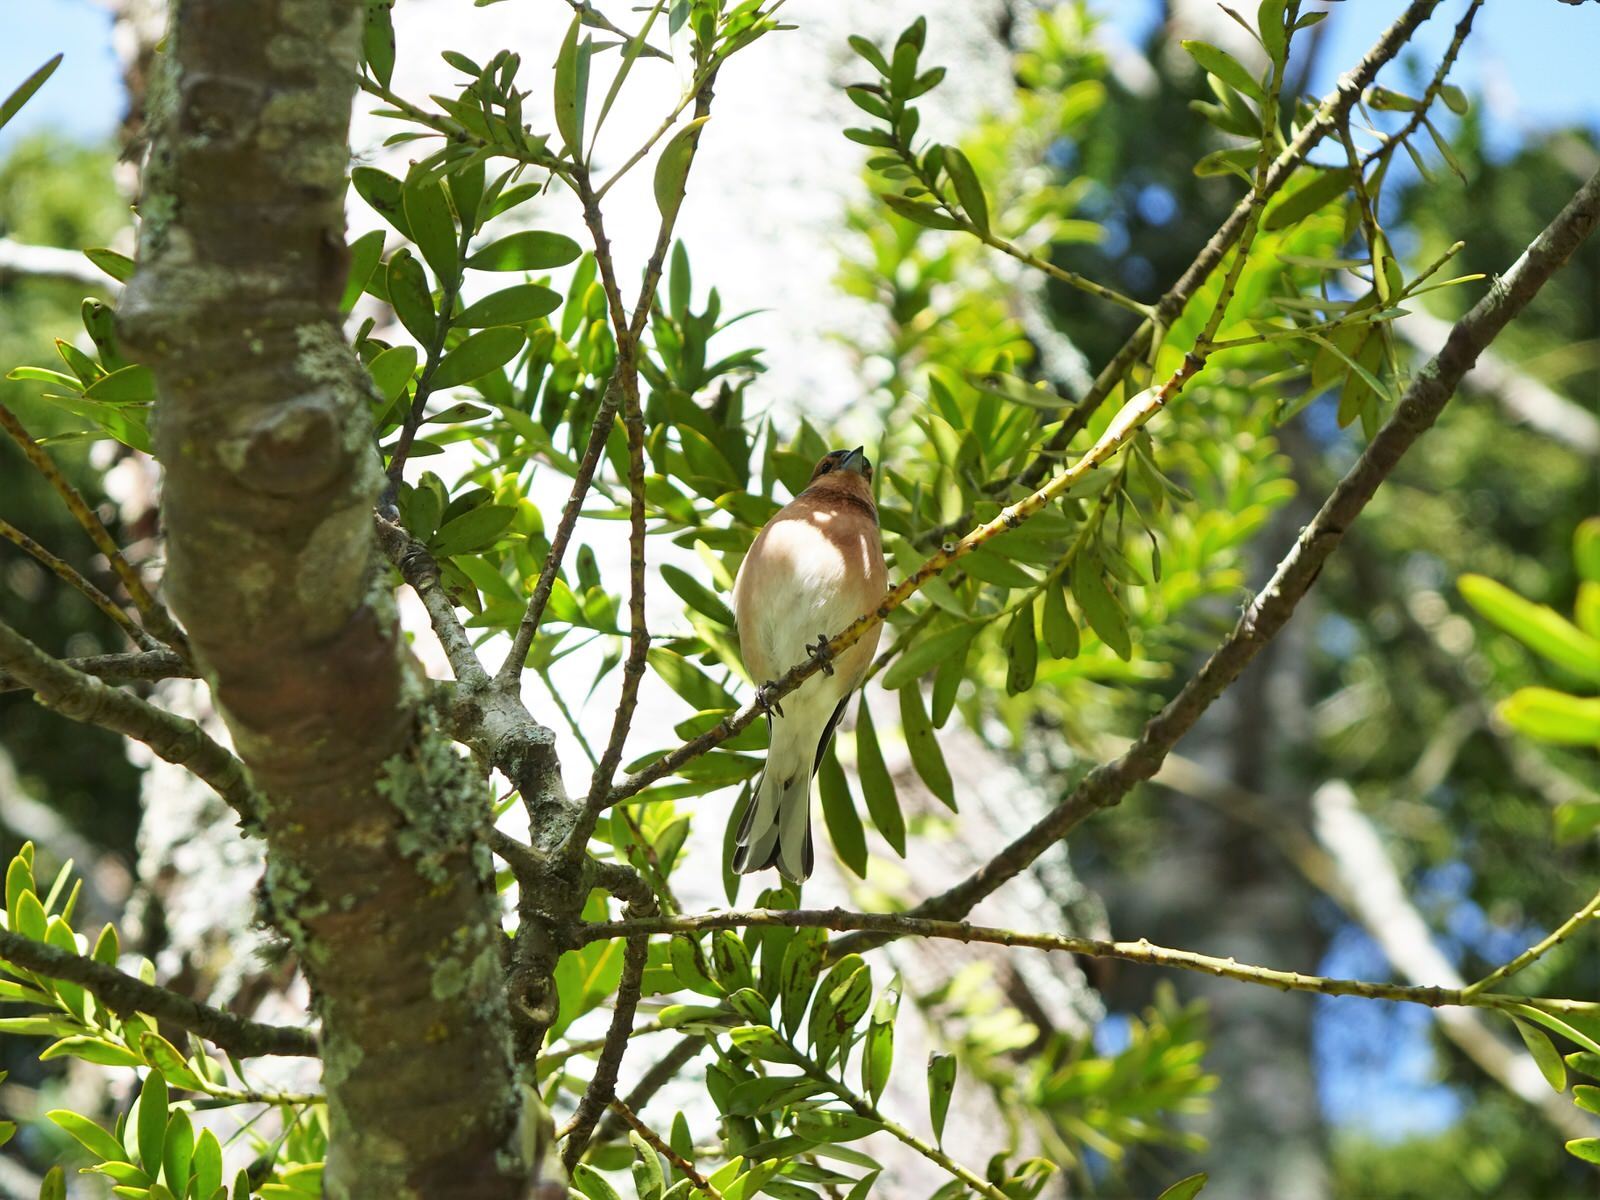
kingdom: Animalia
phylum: Chordata
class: Aves
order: Passeriformes
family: Fringillidae
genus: Fringilla
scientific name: Fringilla coelebs
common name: Common chaffinch
